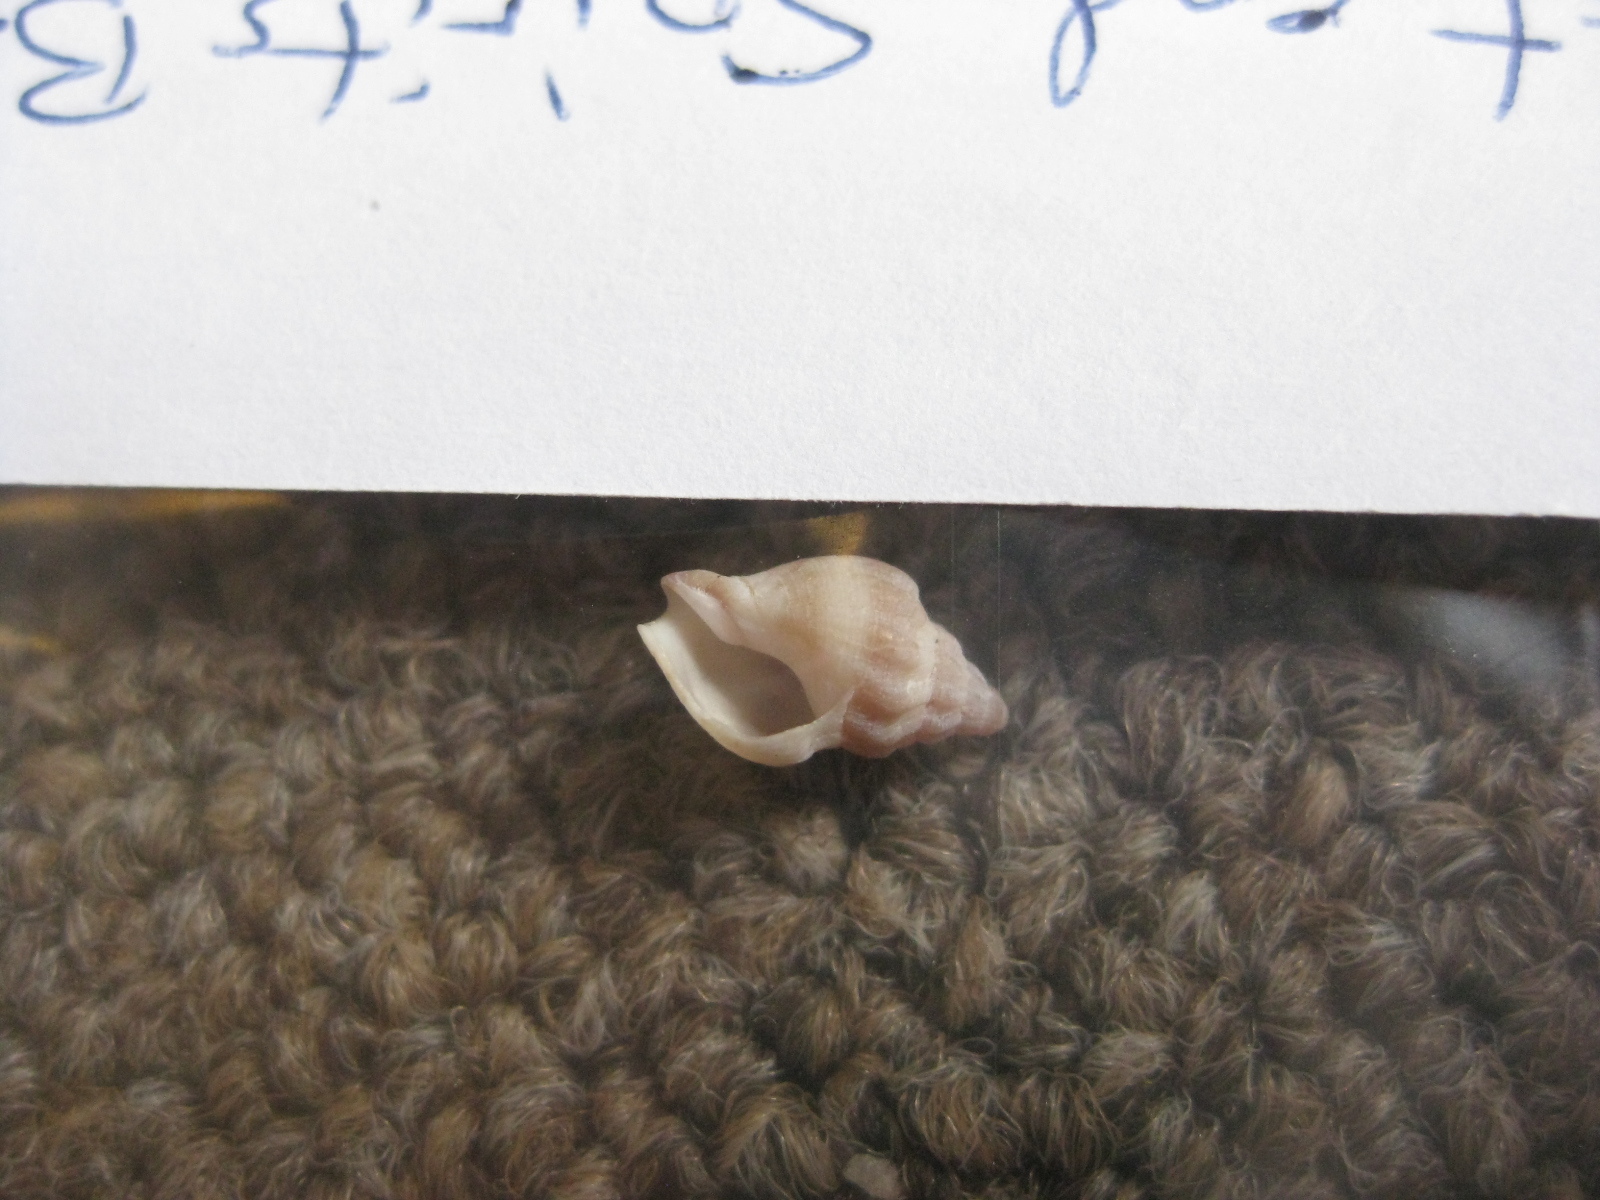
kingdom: Animalia
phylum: Mollusca
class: Gastropoda
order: Neogastropoda
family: Cominellidae
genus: Cominella
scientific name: Cominella glandiformis
